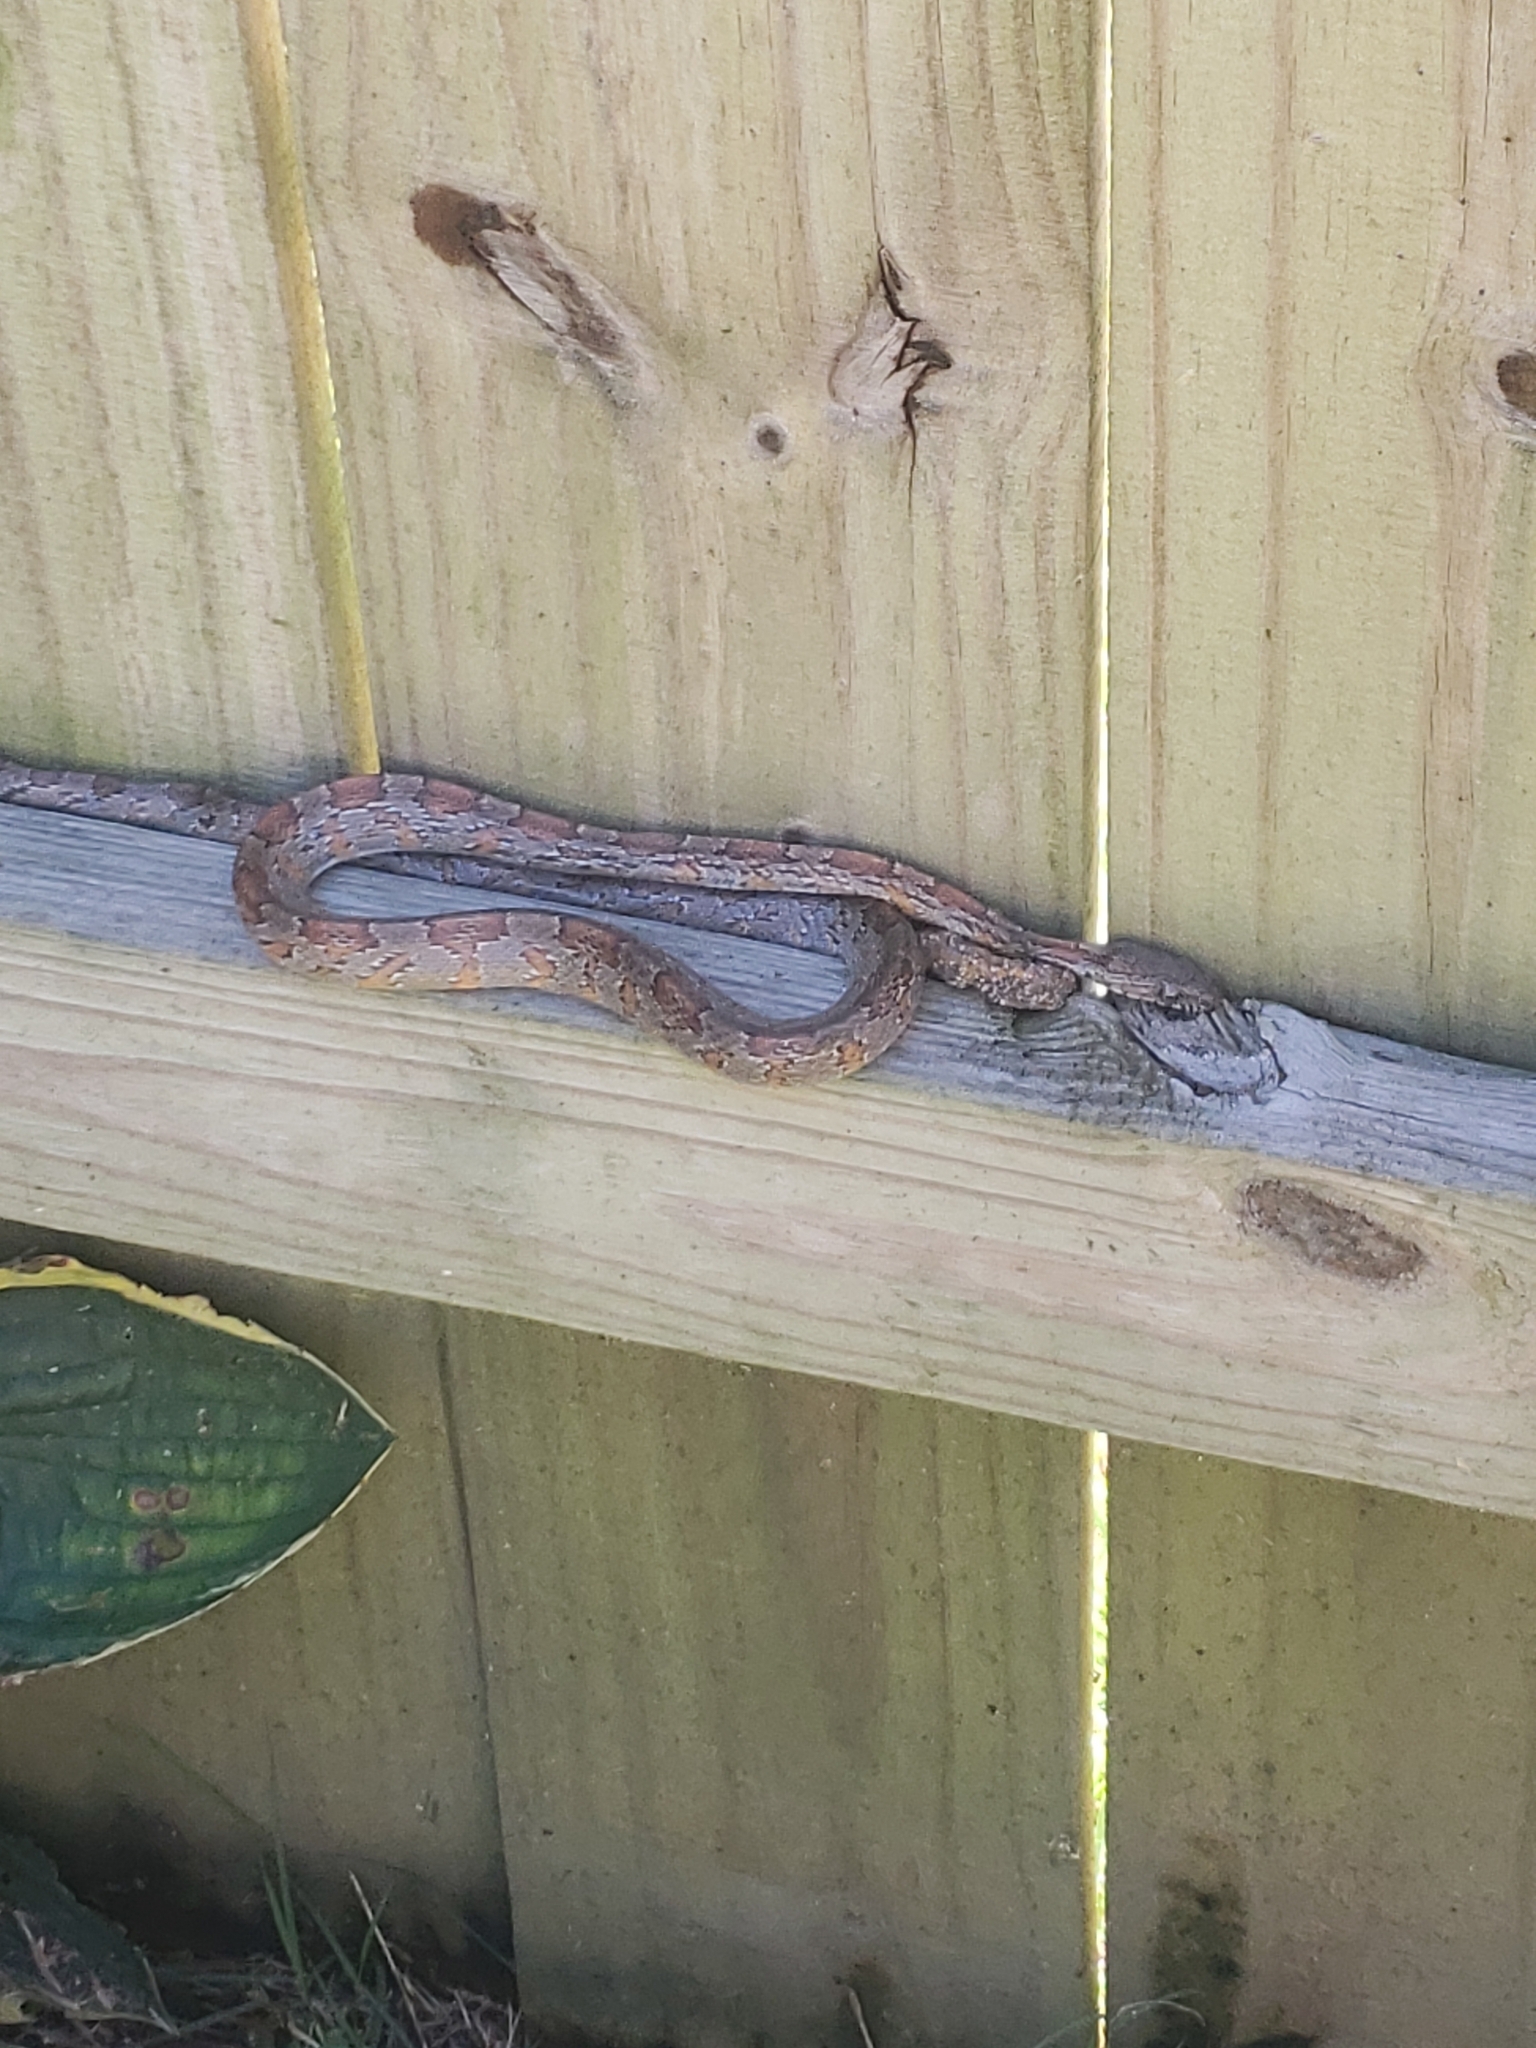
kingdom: Animalia
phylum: Chordata
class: Squamata
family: Colubridae
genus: Pantherophis
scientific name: Pantherophis guttatus
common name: Red cornsnake
